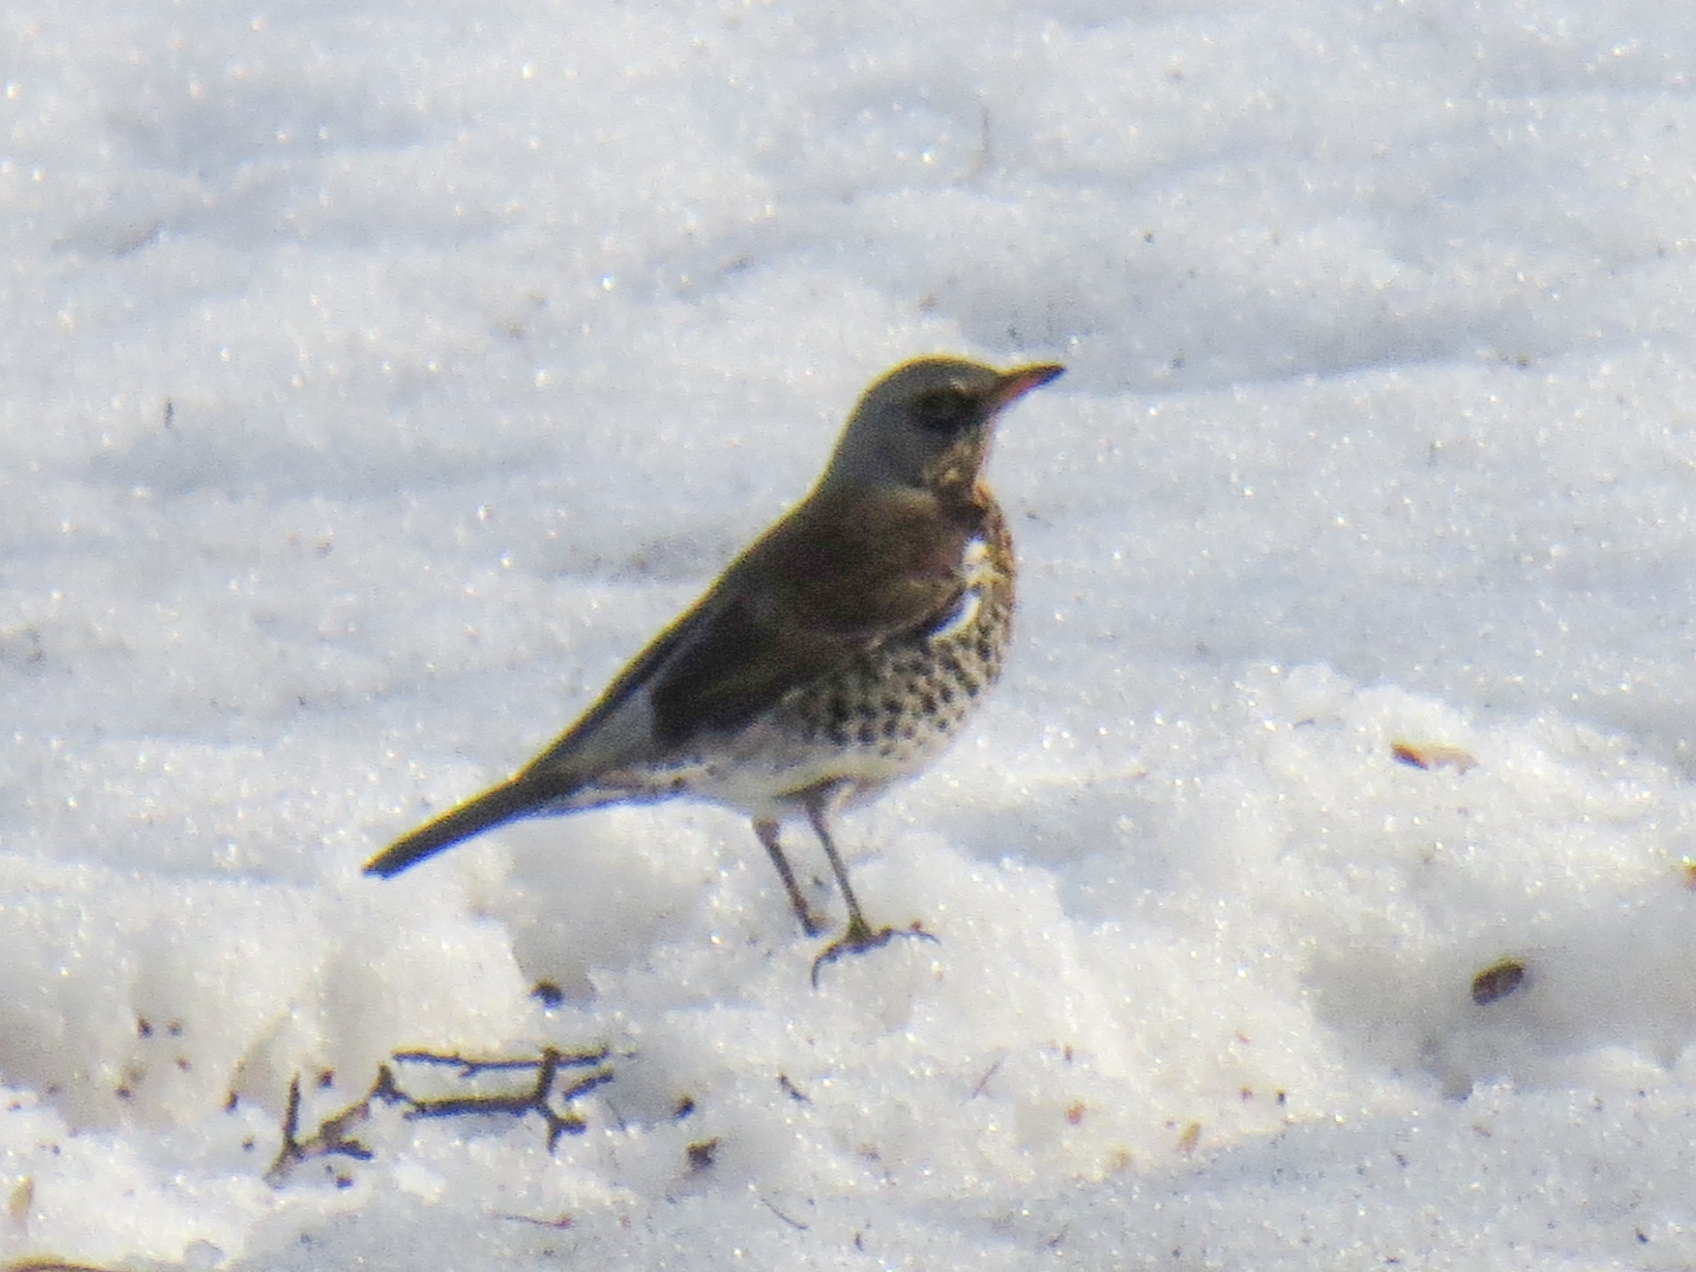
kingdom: Animalia
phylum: Chordata
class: Aves
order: Passeriformes
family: Turdidae
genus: Turdus
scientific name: Turdus pilaris
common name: Fieldfare
